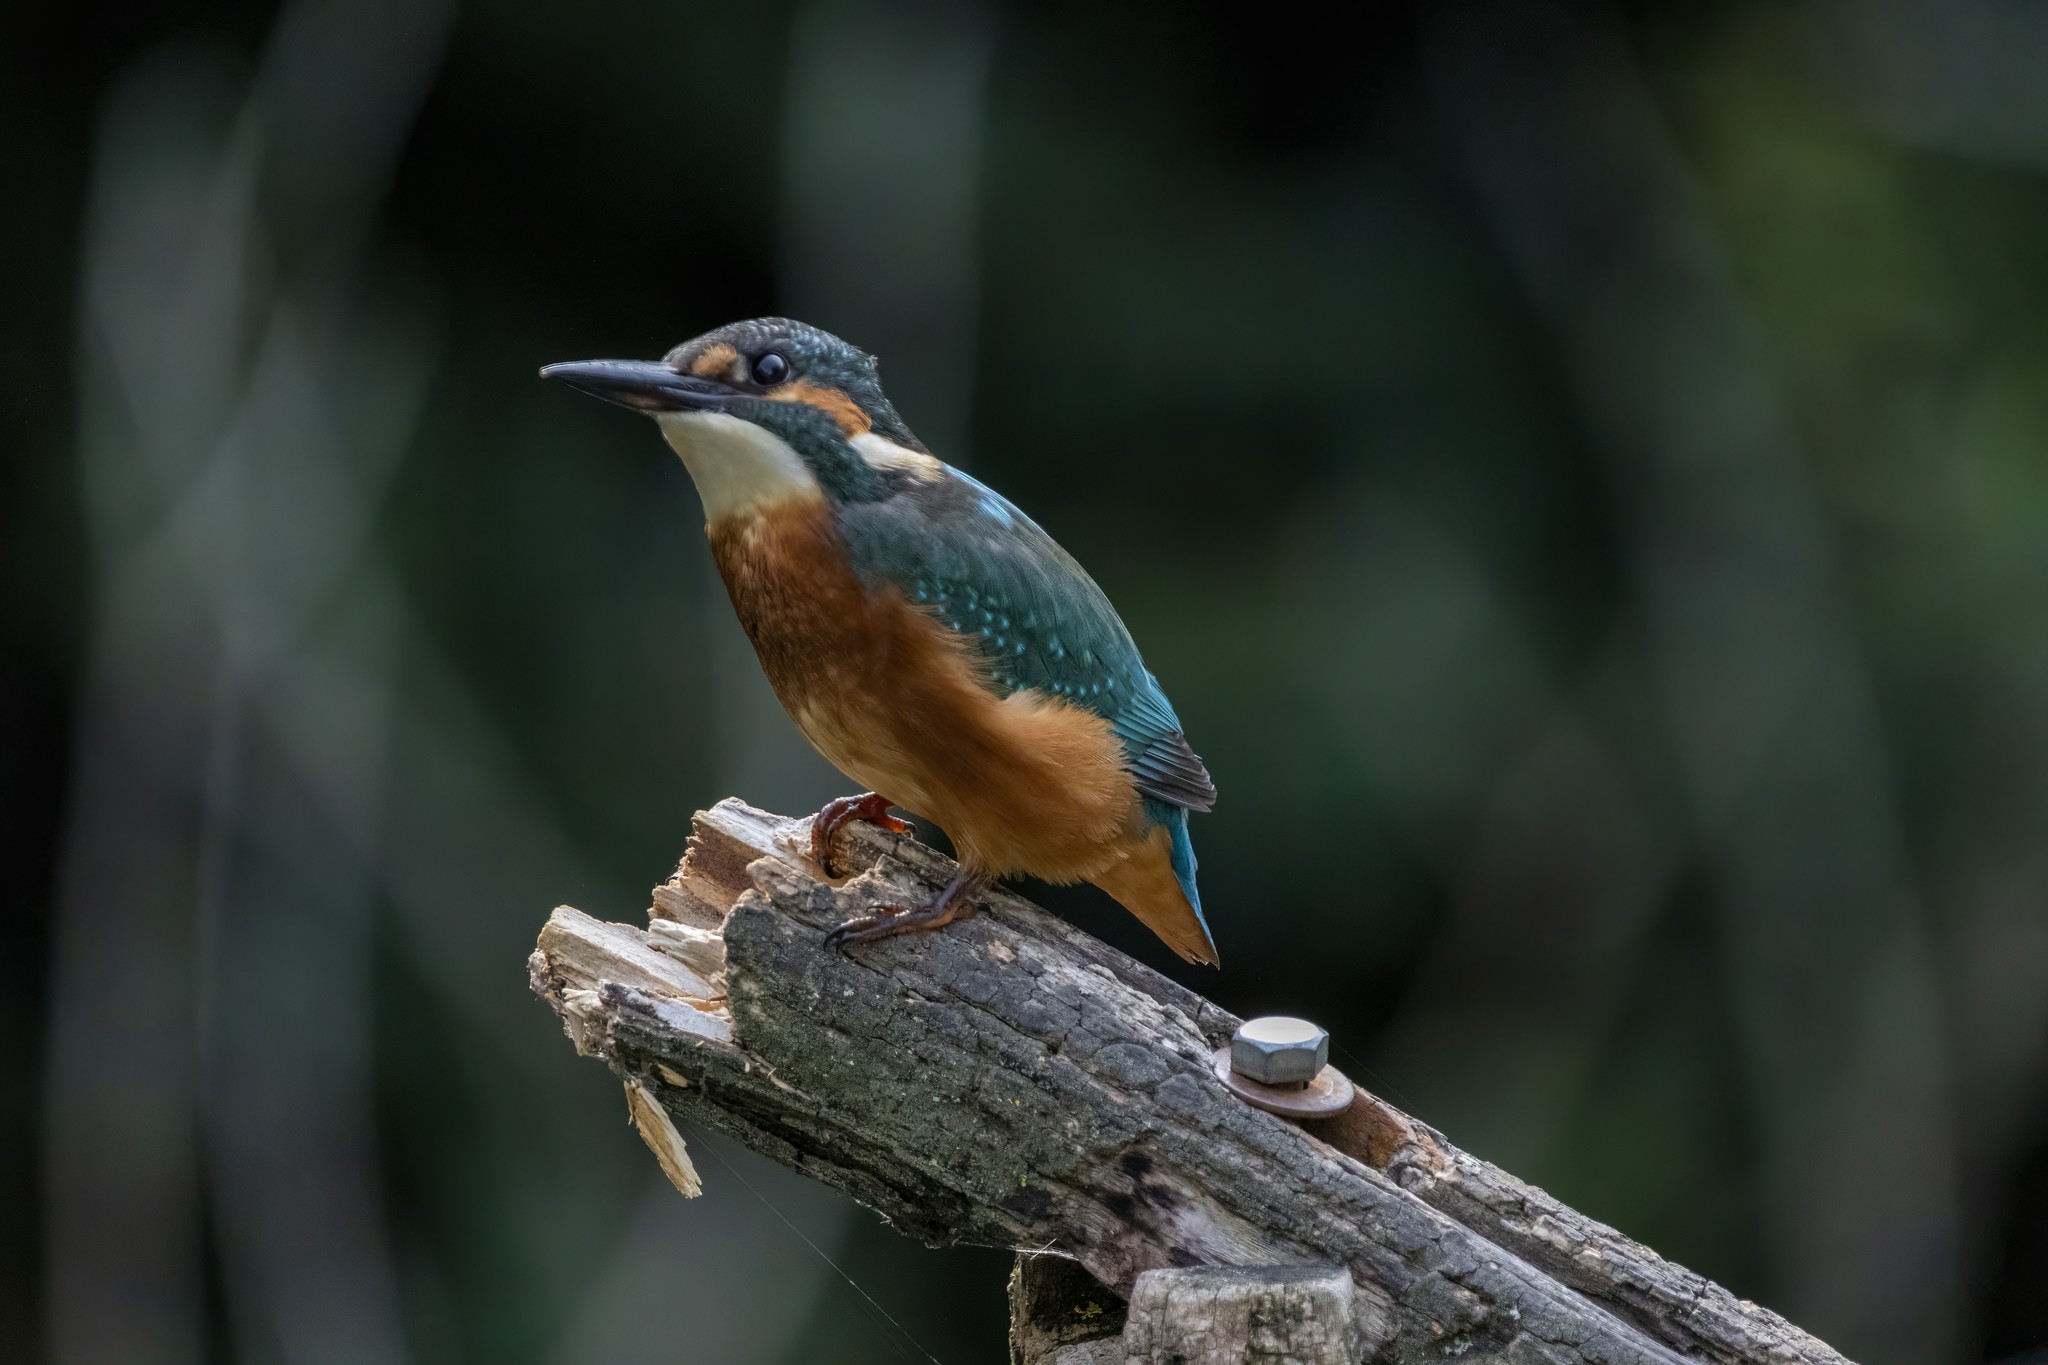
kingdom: Animalia
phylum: Chordata
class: Aves
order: Coraciiformes
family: Alcedinidae
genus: Alcedo
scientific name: Alcedo atthis
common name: Common kingfisher
